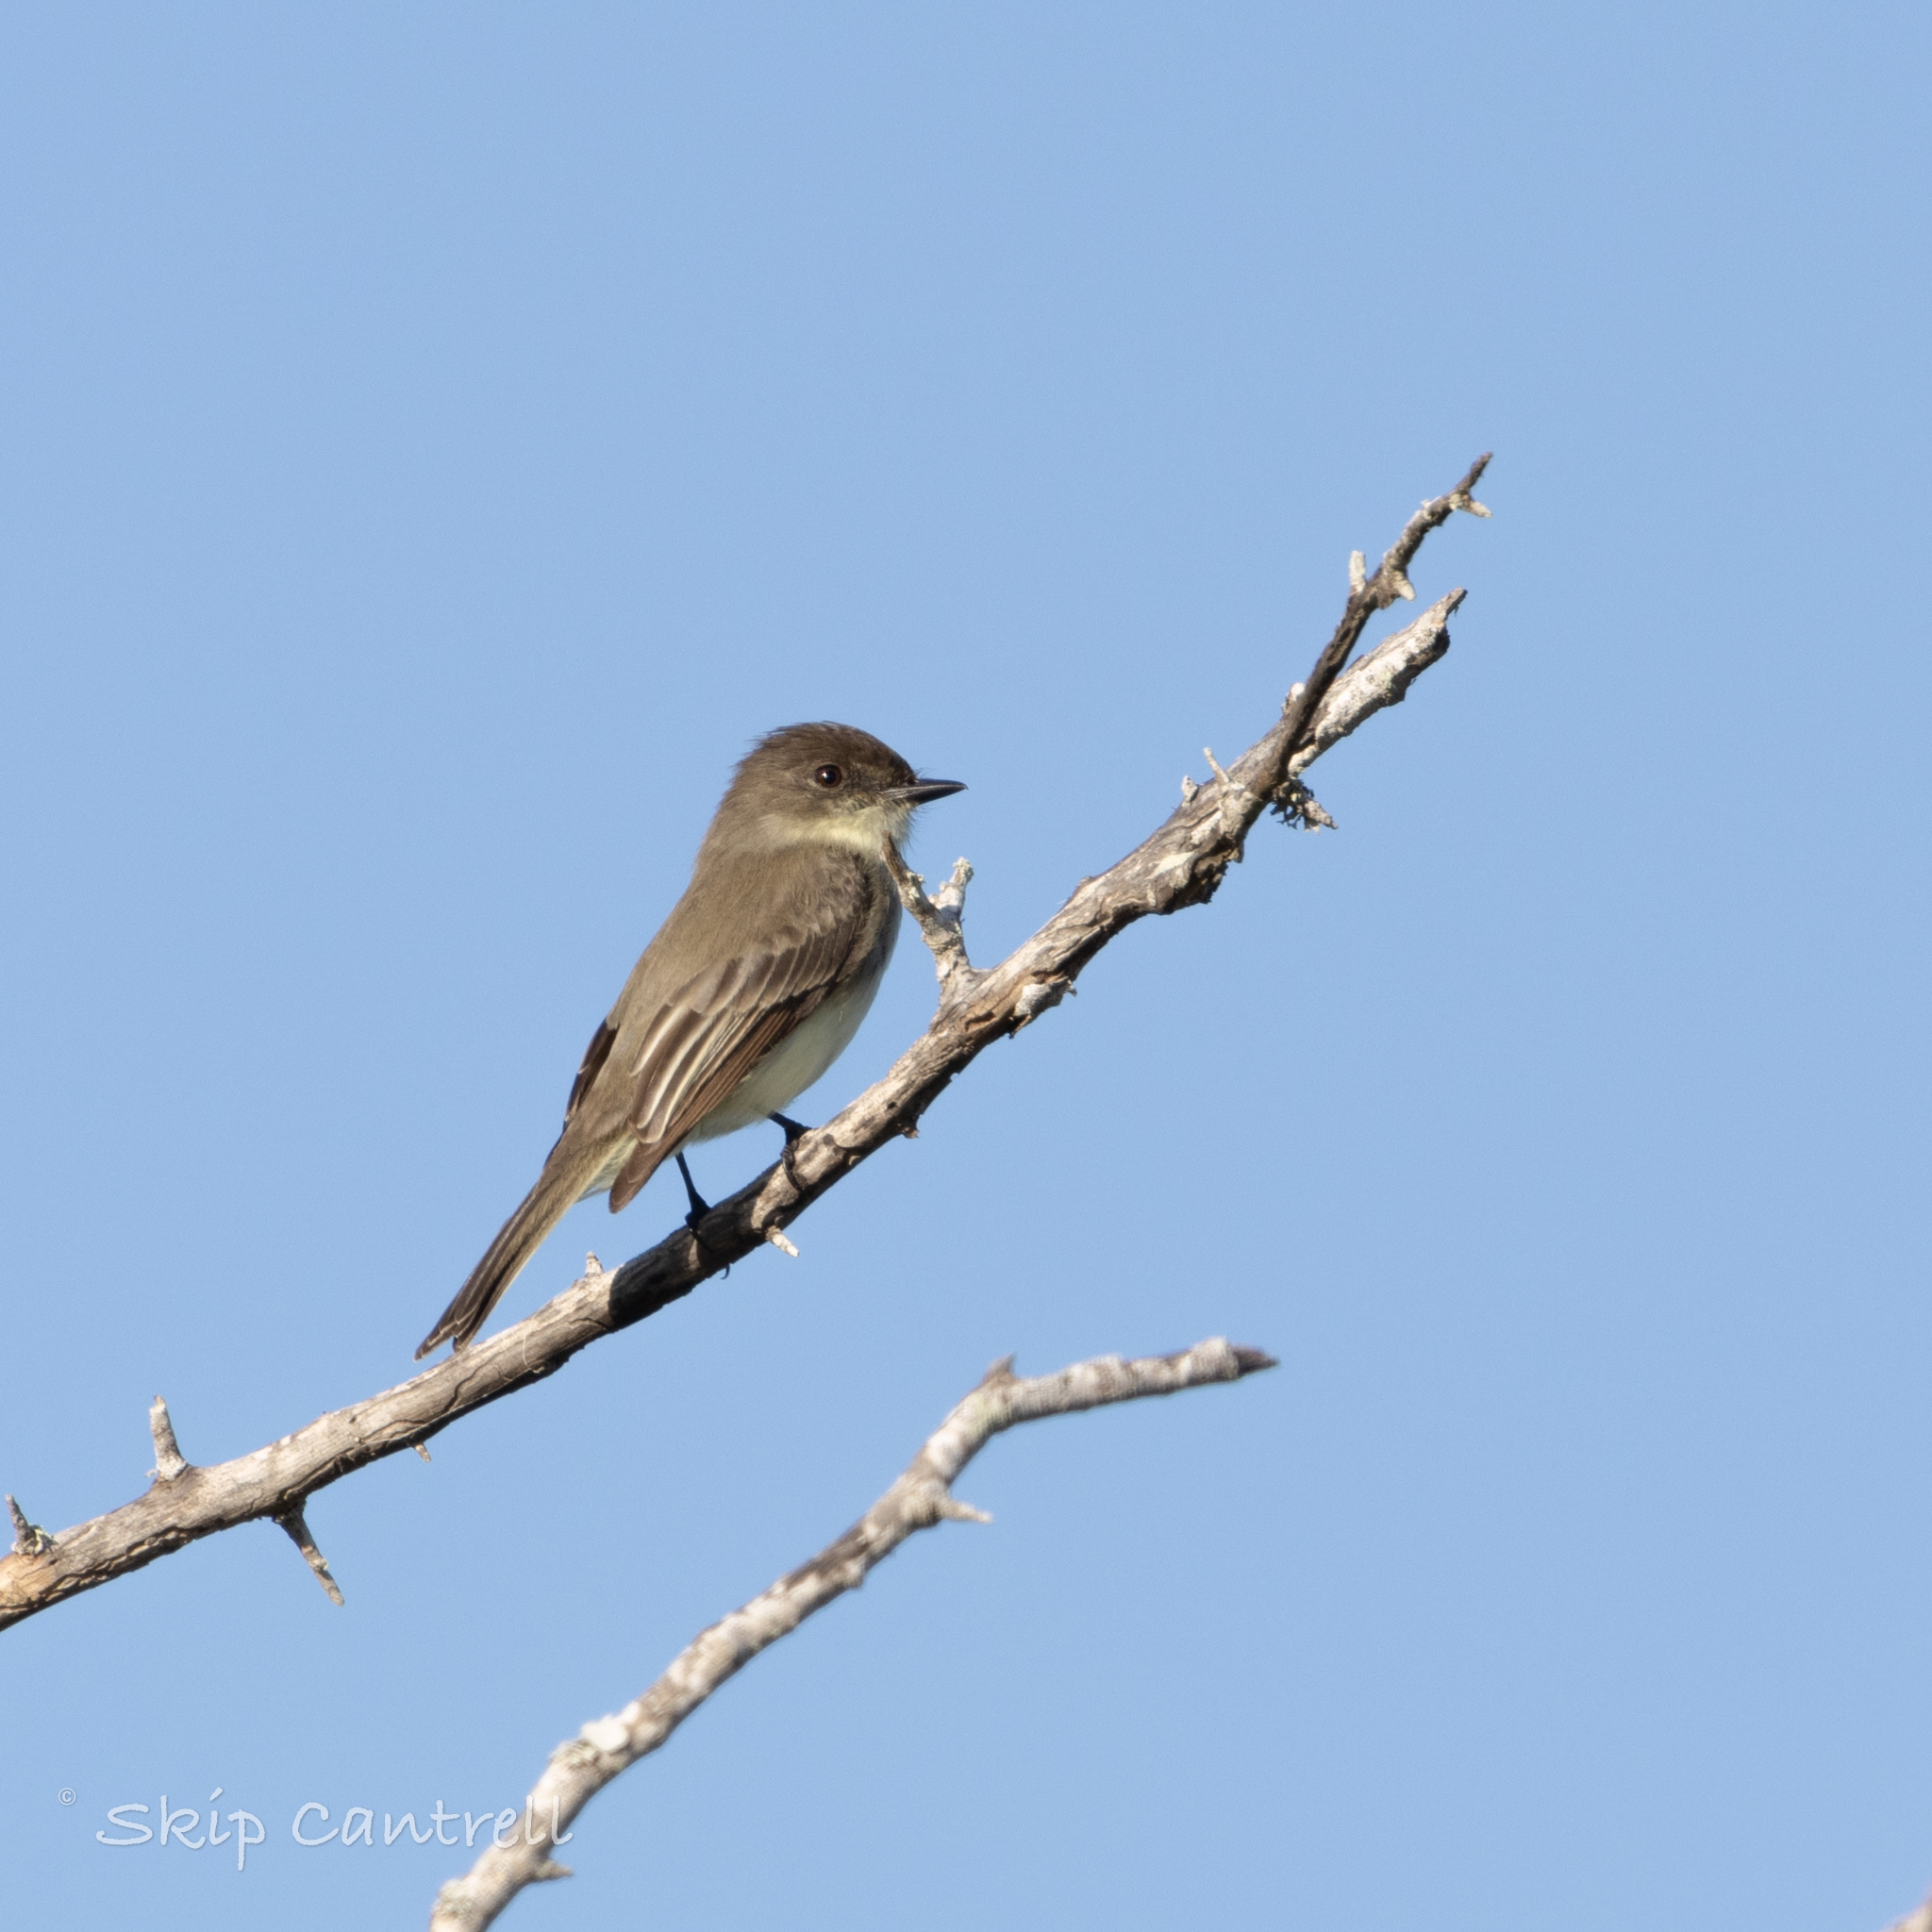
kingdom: Animalia
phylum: Chordata
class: Aves
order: Passeriformes
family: Tyrannidae
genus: Sayornis
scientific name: Sayornis phoebe
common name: Eastern phoebe
